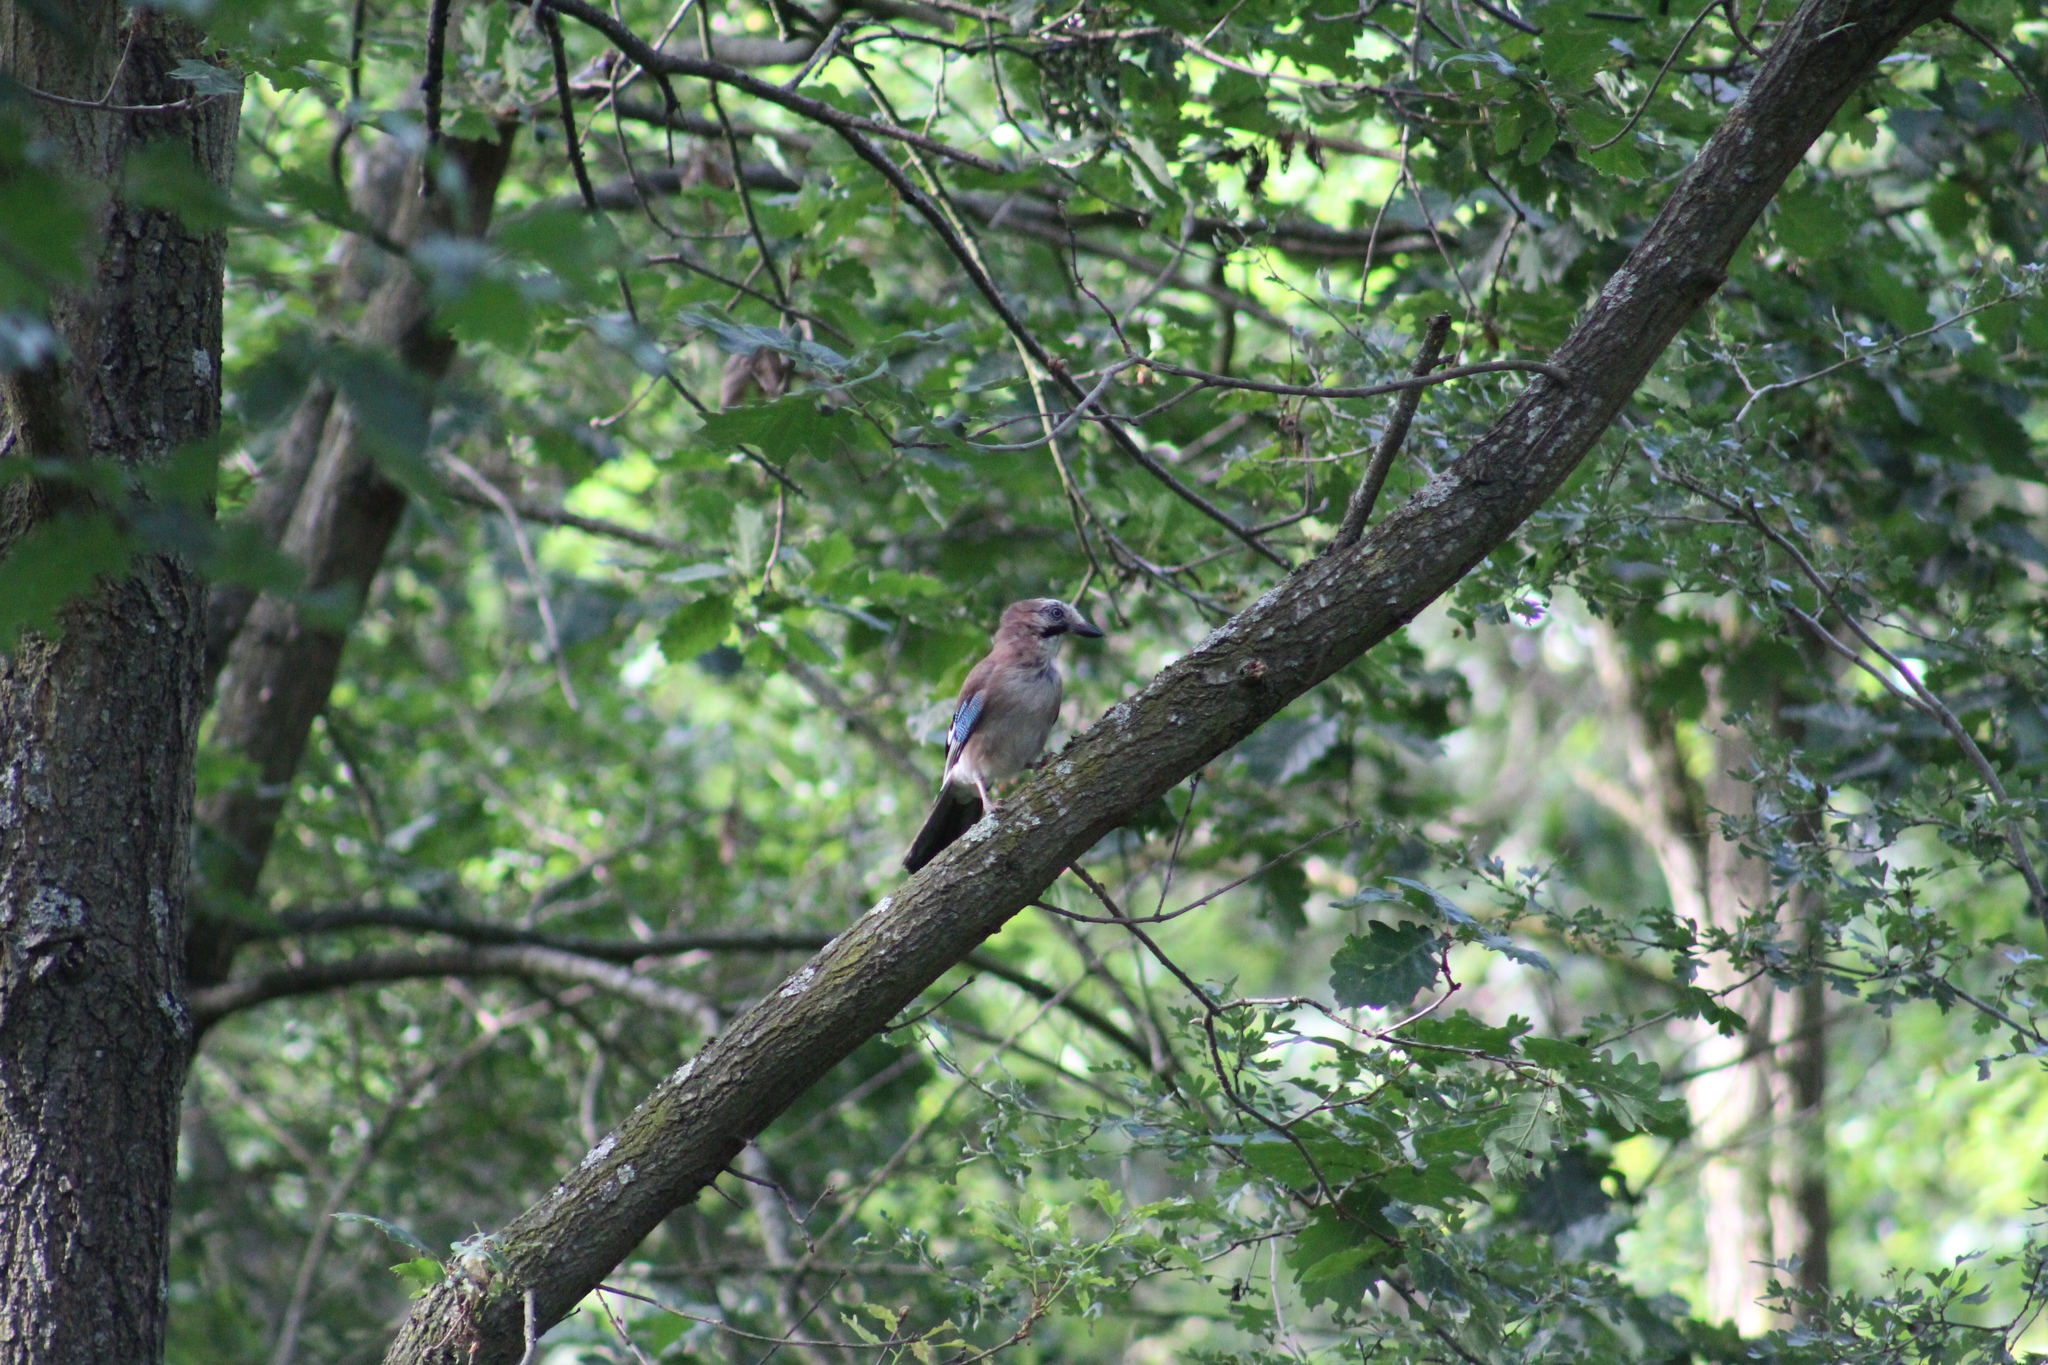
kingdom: Animalia
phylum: Chordata
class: Aves
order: Passeriformes
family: Corvidae
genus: Garrulus
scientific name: Garrulus glandarius
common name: Eurasian jay
